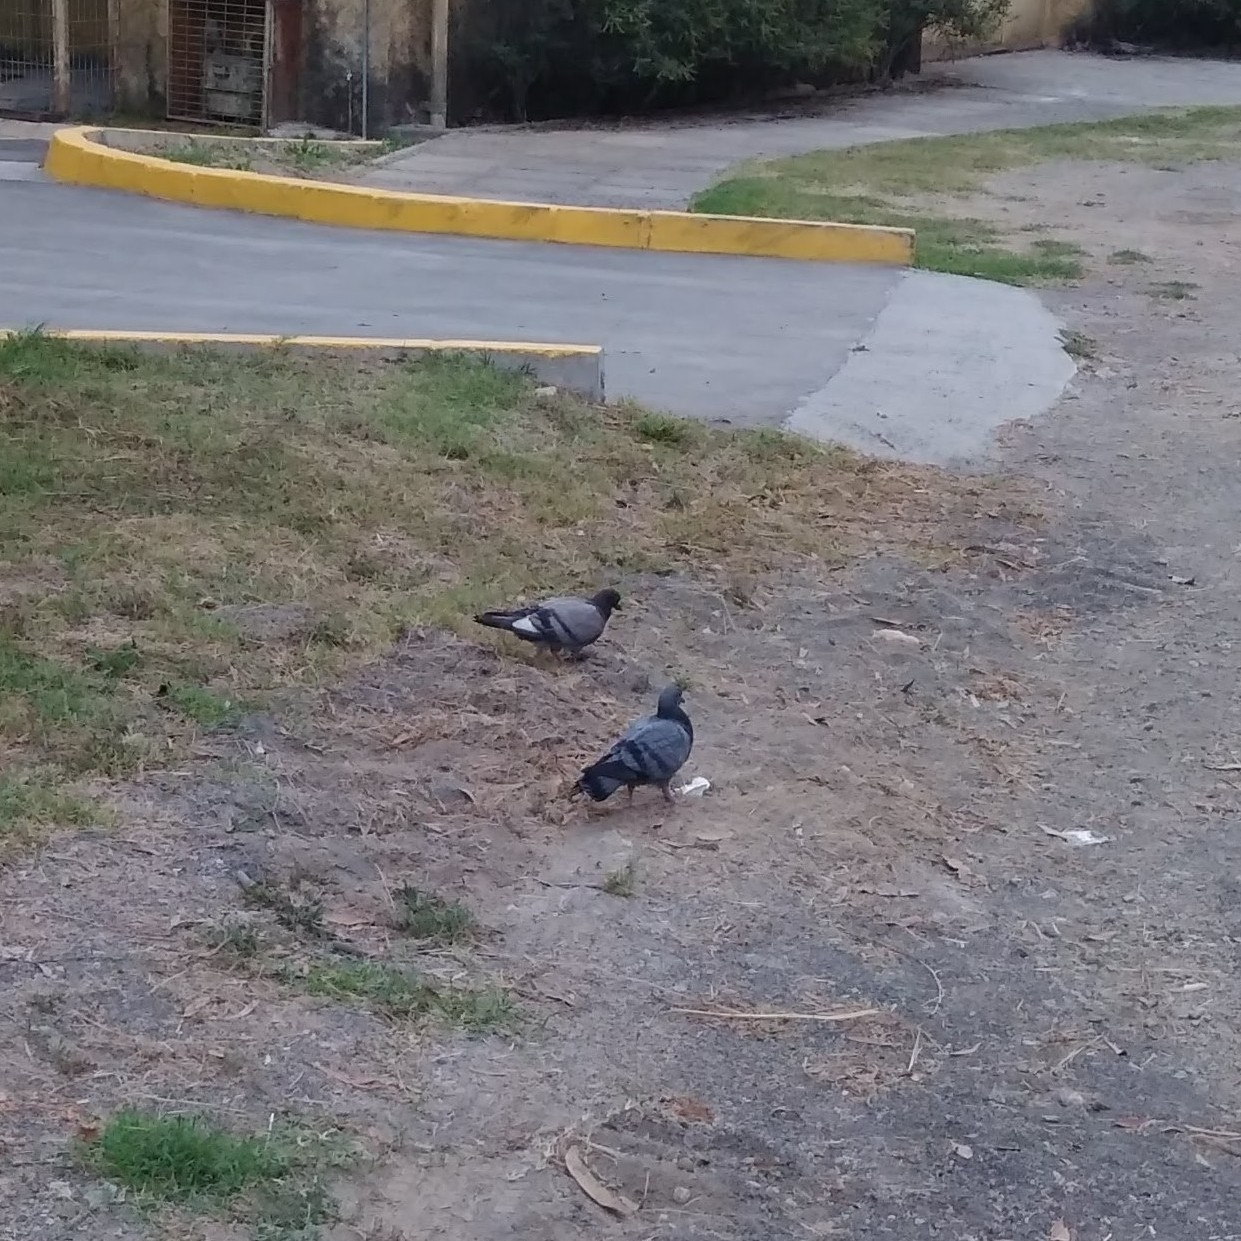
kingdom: Animalia
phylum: Chordata
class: Aves
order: Columbiformes
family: Columbidae
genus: Columba
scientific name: Columba livia
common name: Rock pigeon
